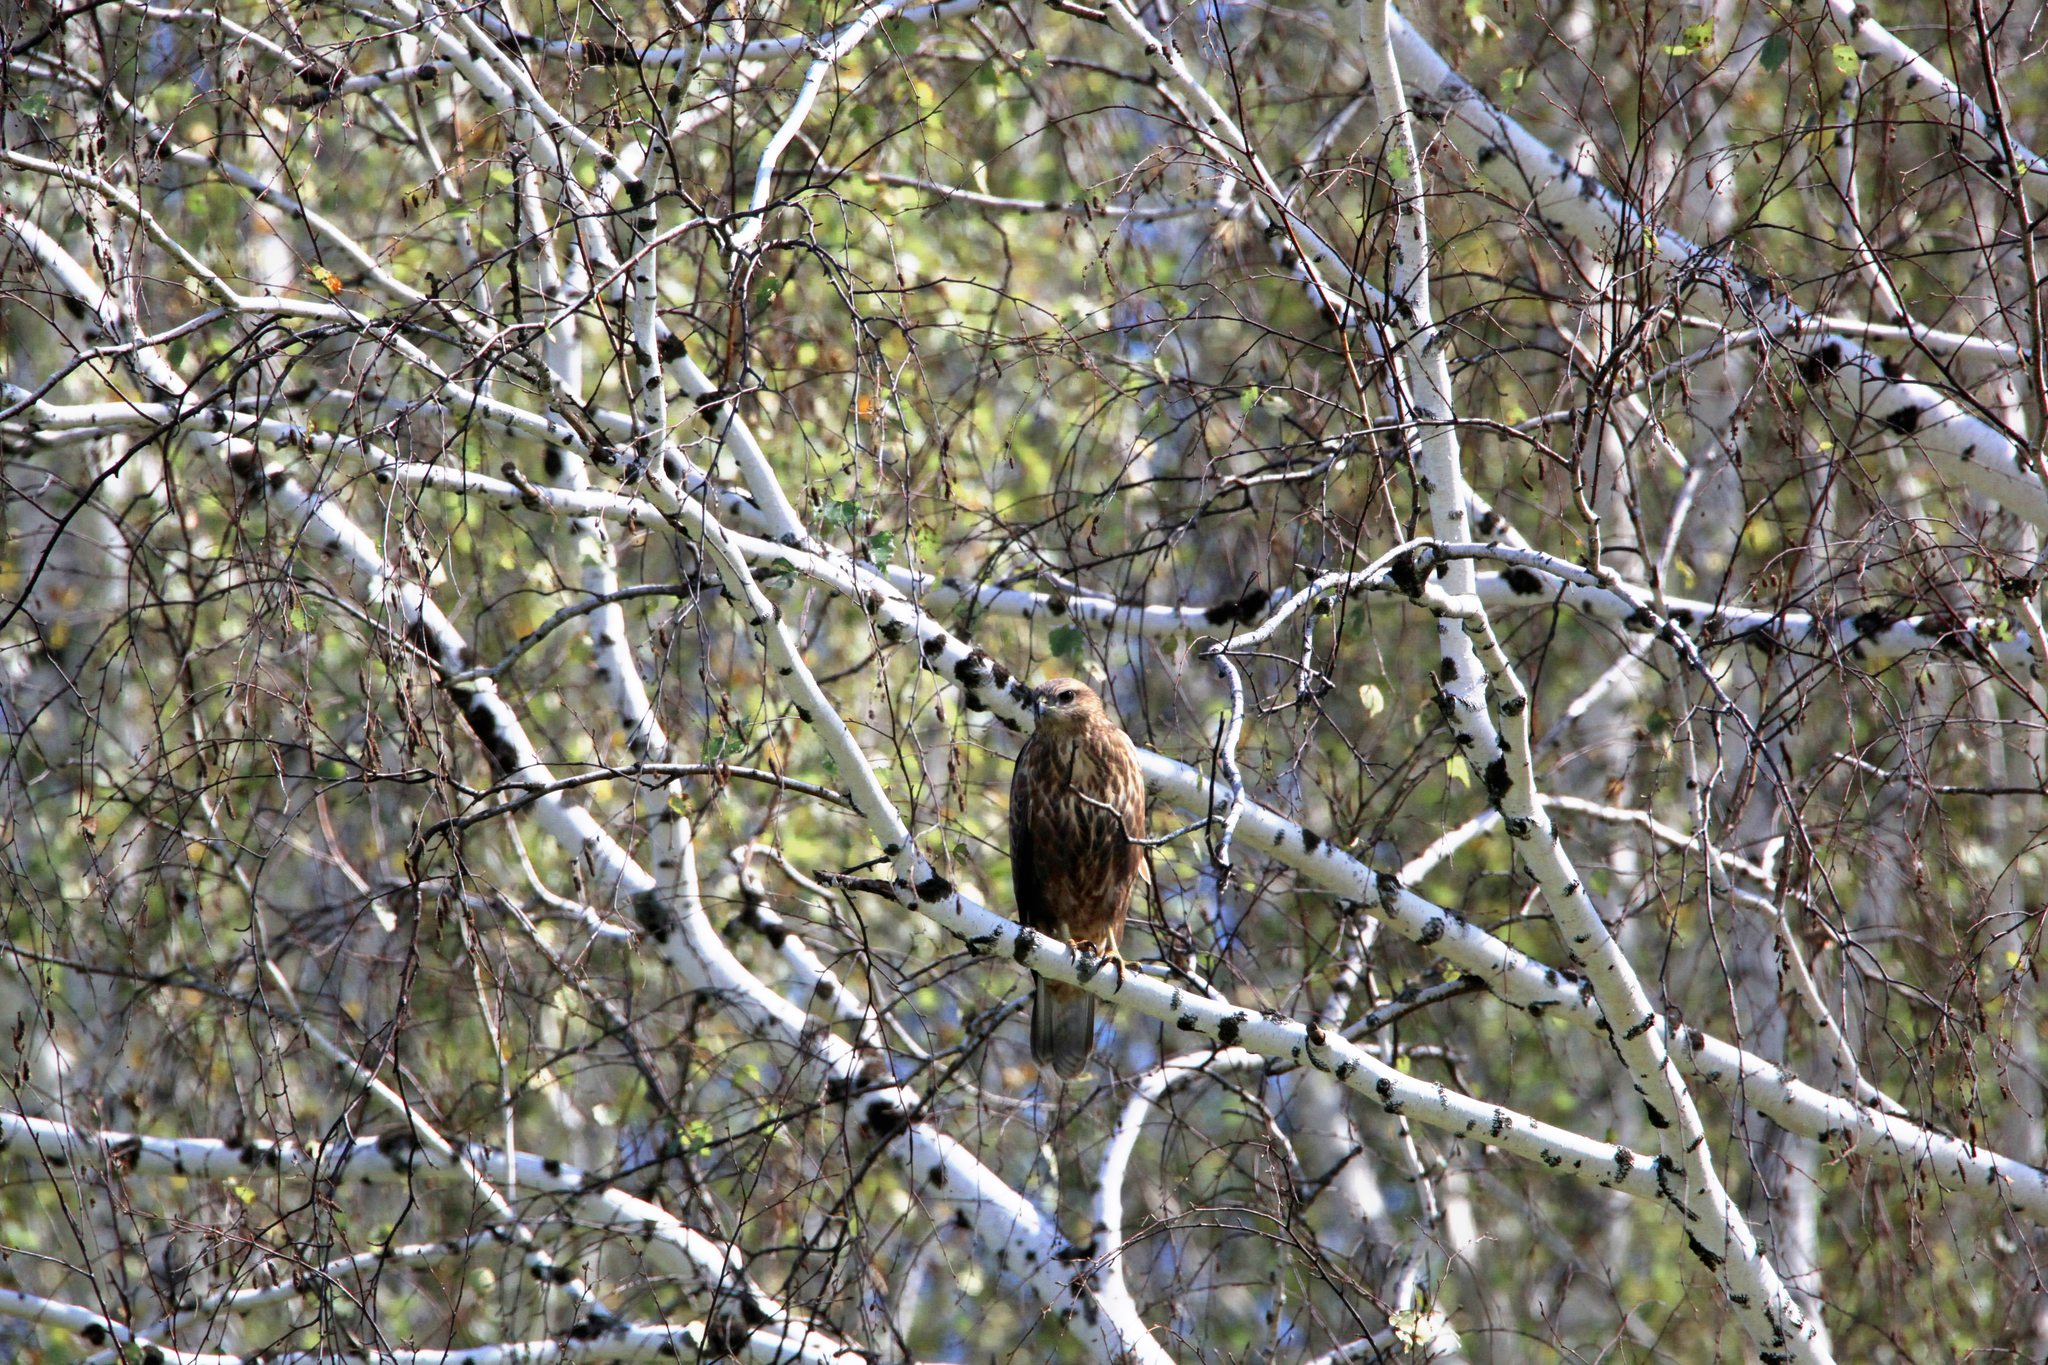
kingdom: Animalia
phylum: Chordata
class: Aves
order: Accipitriformes
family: Accipitridae
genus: Buteo
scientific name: Buteo buteo
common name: Common buzzard
